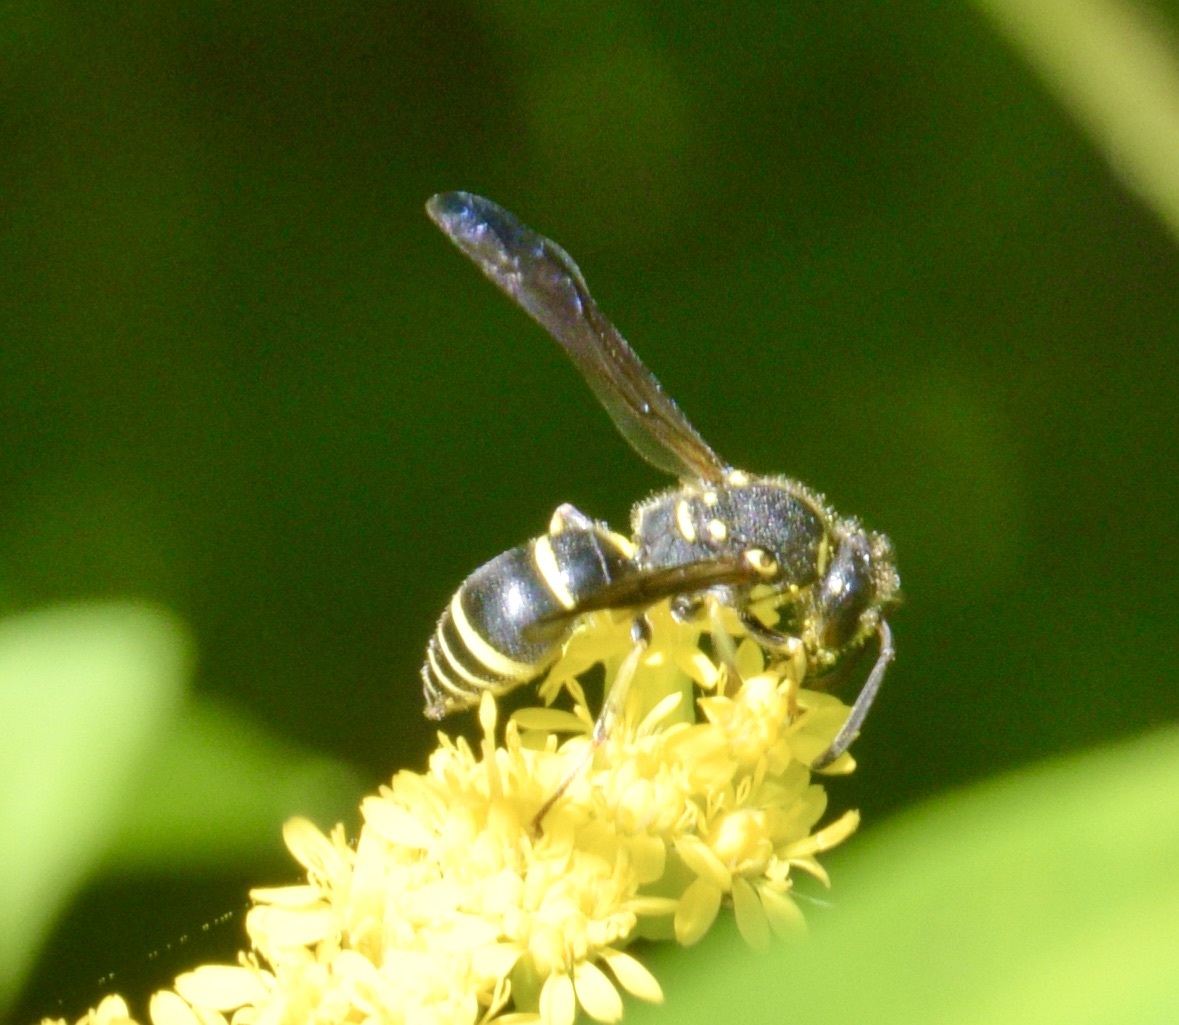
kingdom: Animalia
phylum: Arthropoda
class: Insecta
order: Hymenoptera
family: Vespidae
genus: Ancistrocerus
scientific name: Ancistrocerus adiabatus
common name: Bramble mason wasp
